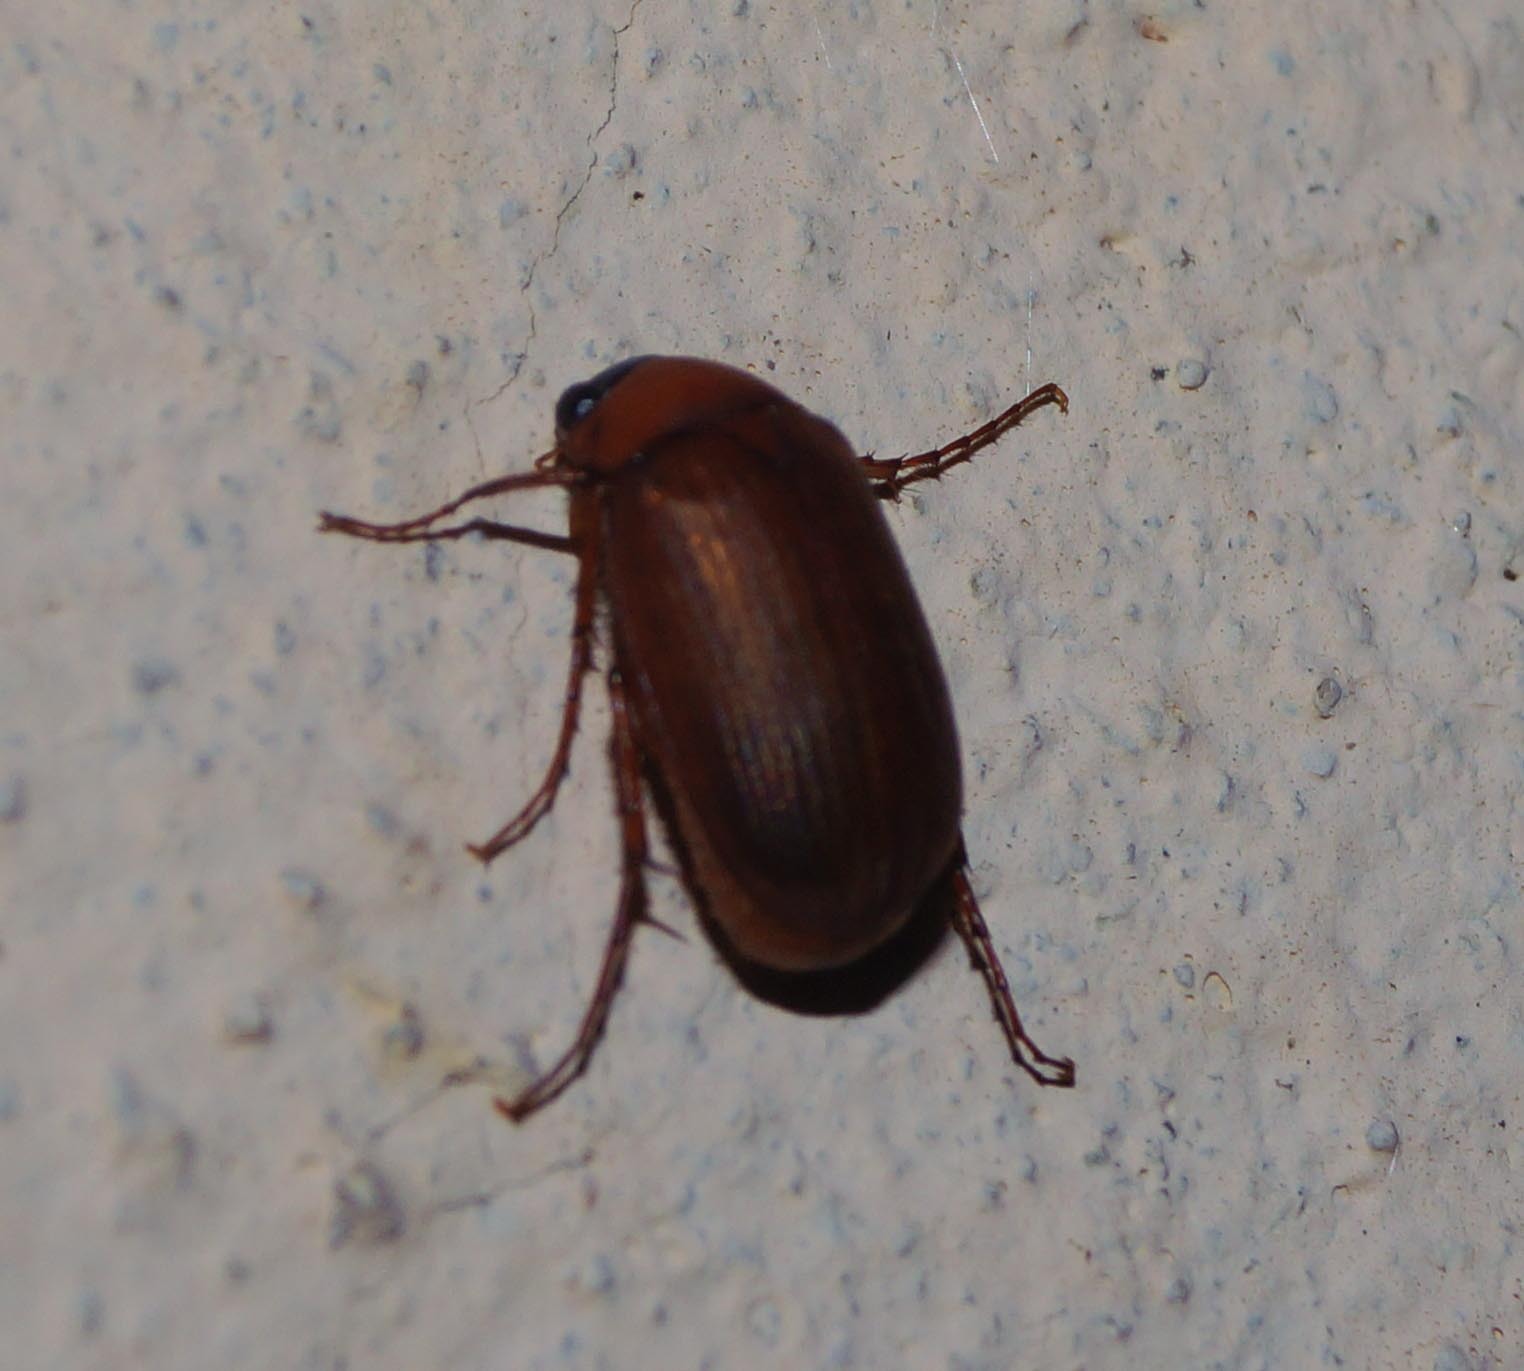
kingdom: Animalia
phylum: Arthropoda
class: Insecta
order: Coleoptera
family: Scarabaeidae
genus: Serica
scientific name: Serica brunnea
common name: Brown chafer
